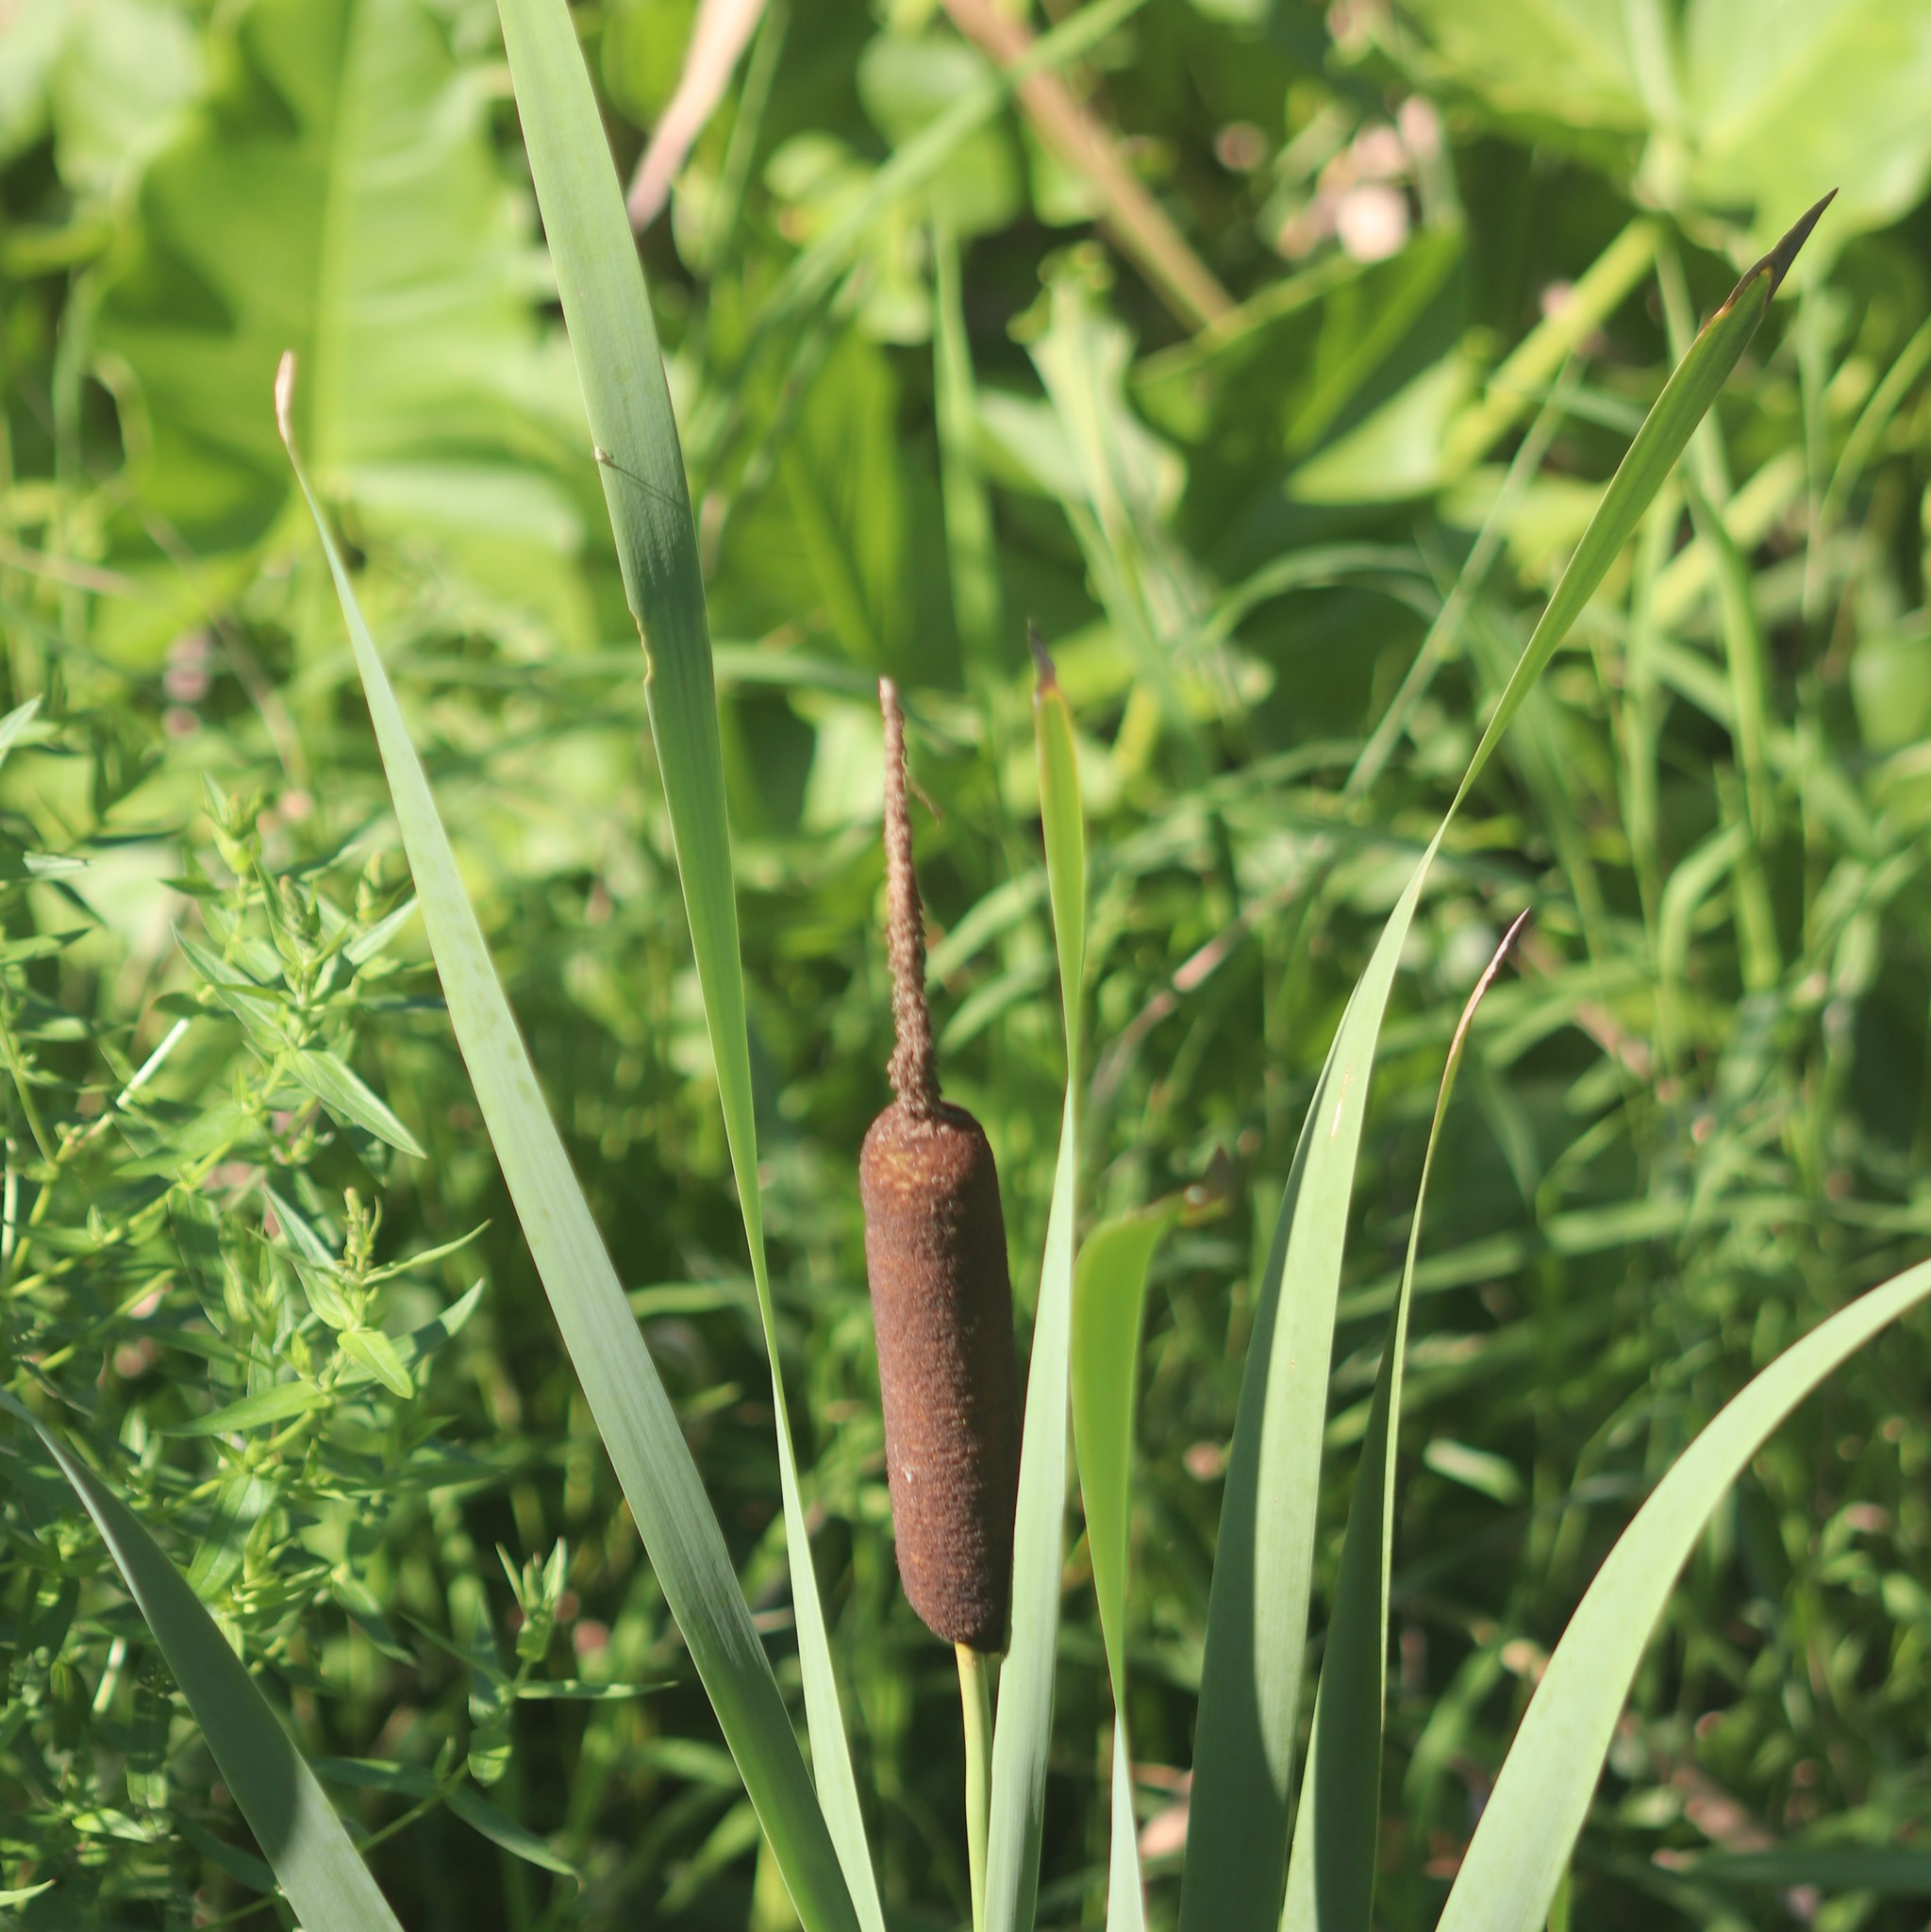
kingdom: Plantae
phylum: Tracheophyta
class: Liliopsida
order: Poales
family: Typhaceae
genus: Typha
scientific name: Typha latifolia
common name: Broadleaf cattail
